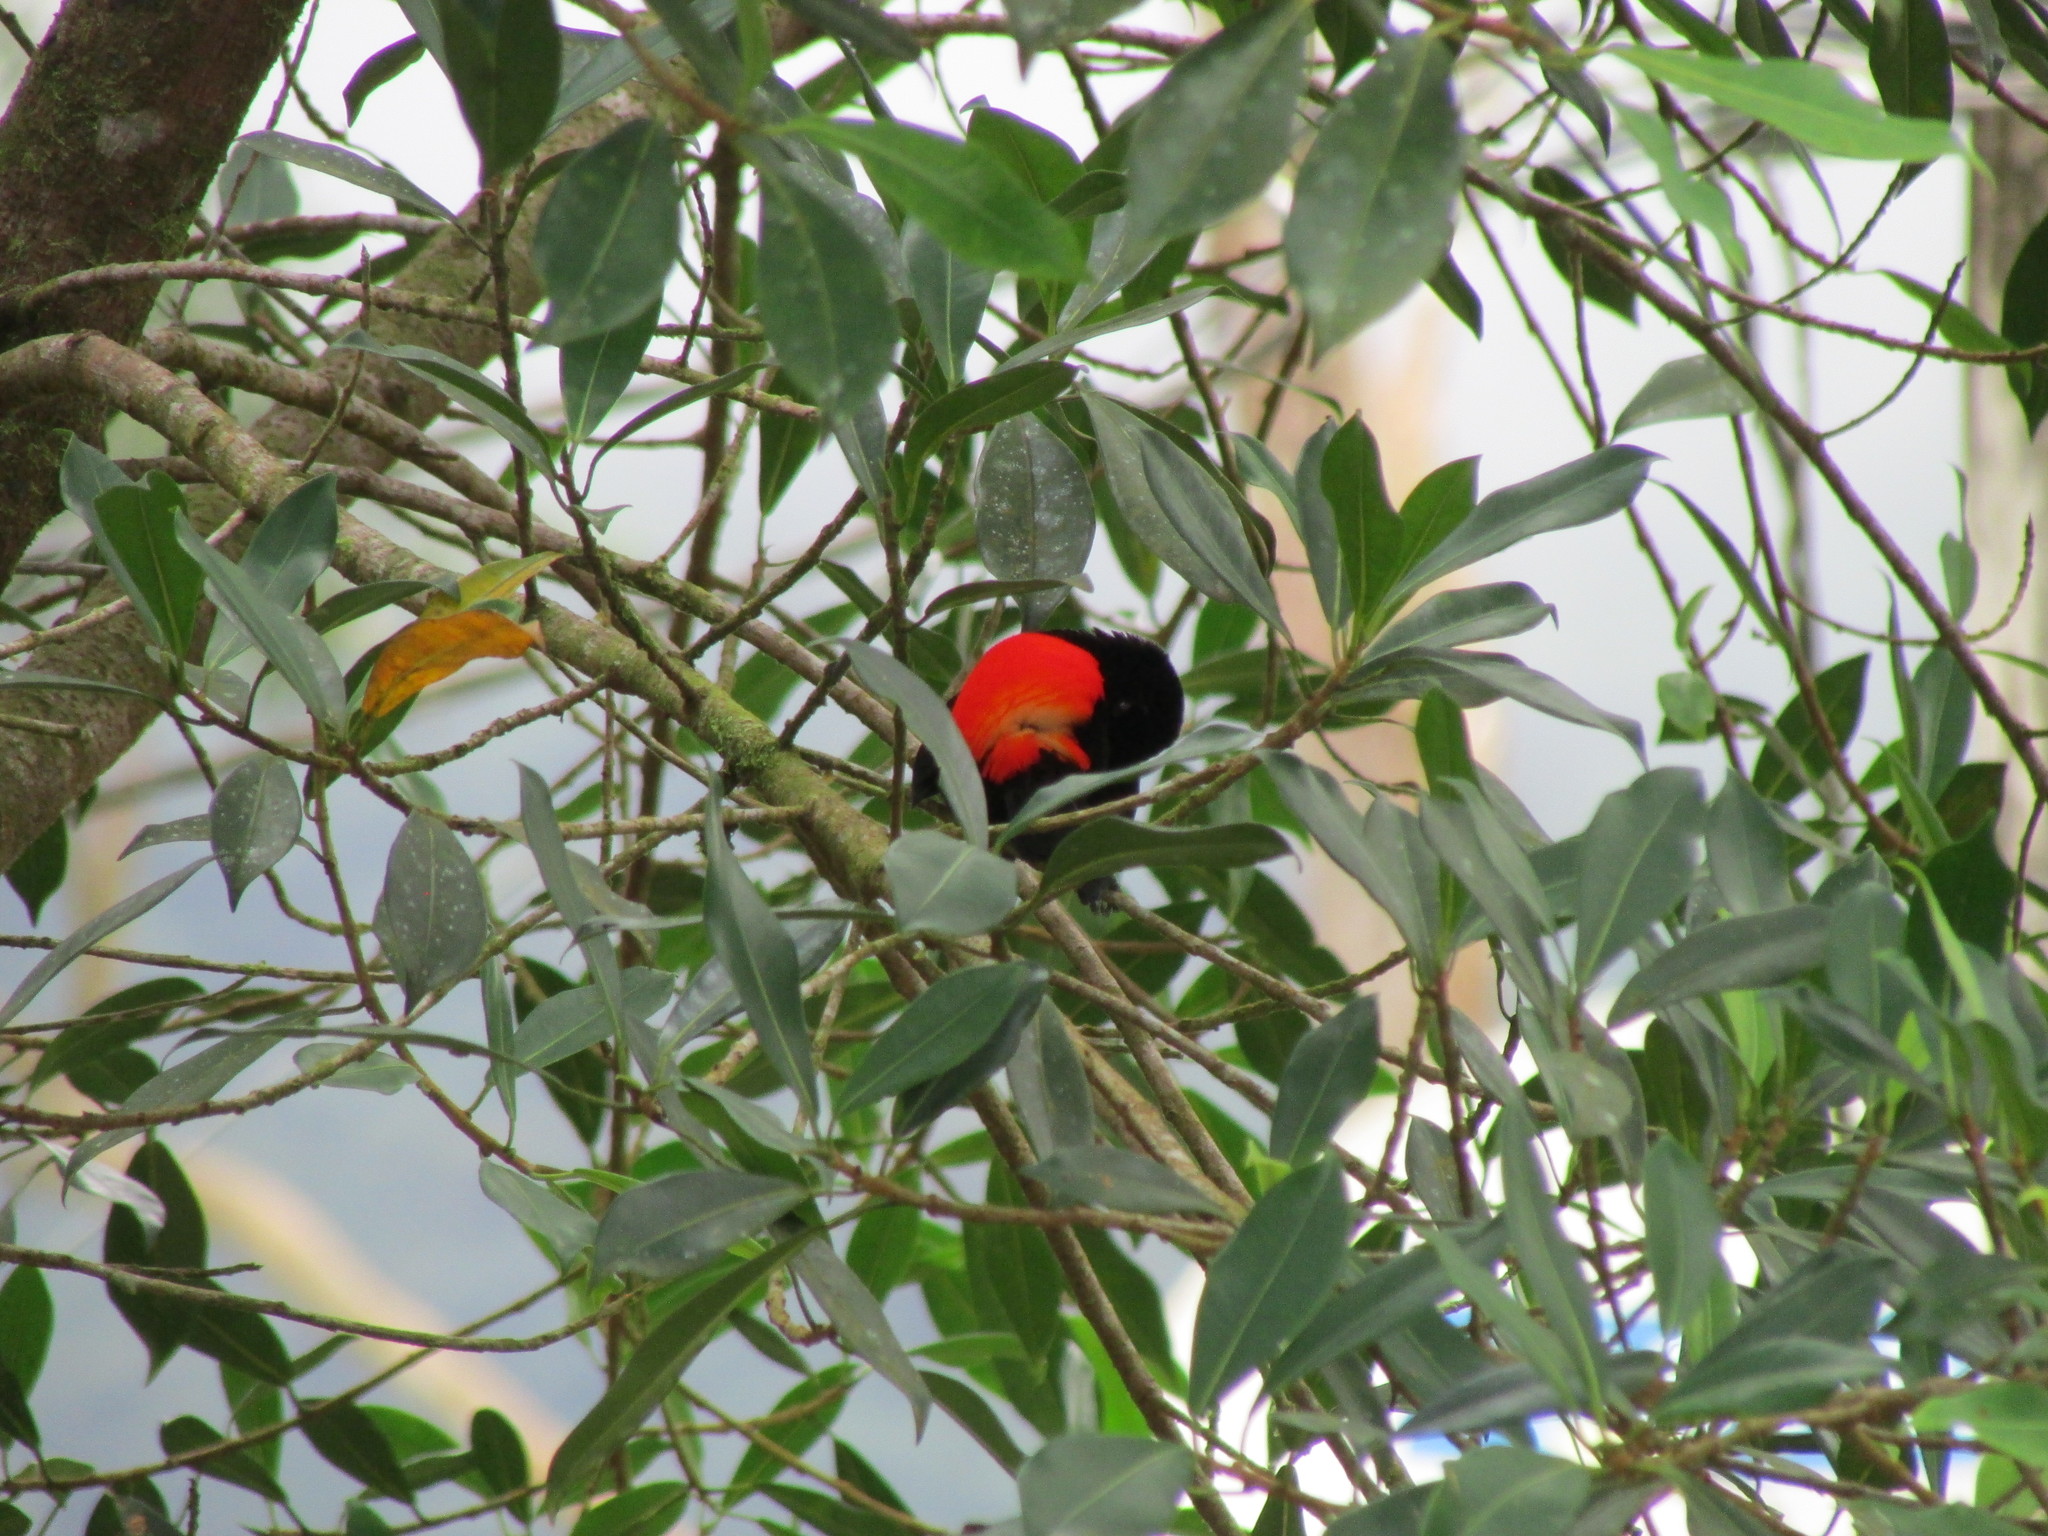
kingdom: Animalia
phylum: Chordata
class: Aves
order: Passeriformes
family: Thraupidae
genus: Ramphocelus
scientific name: Ramphocelus passerinii
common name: Passerini's tanager
